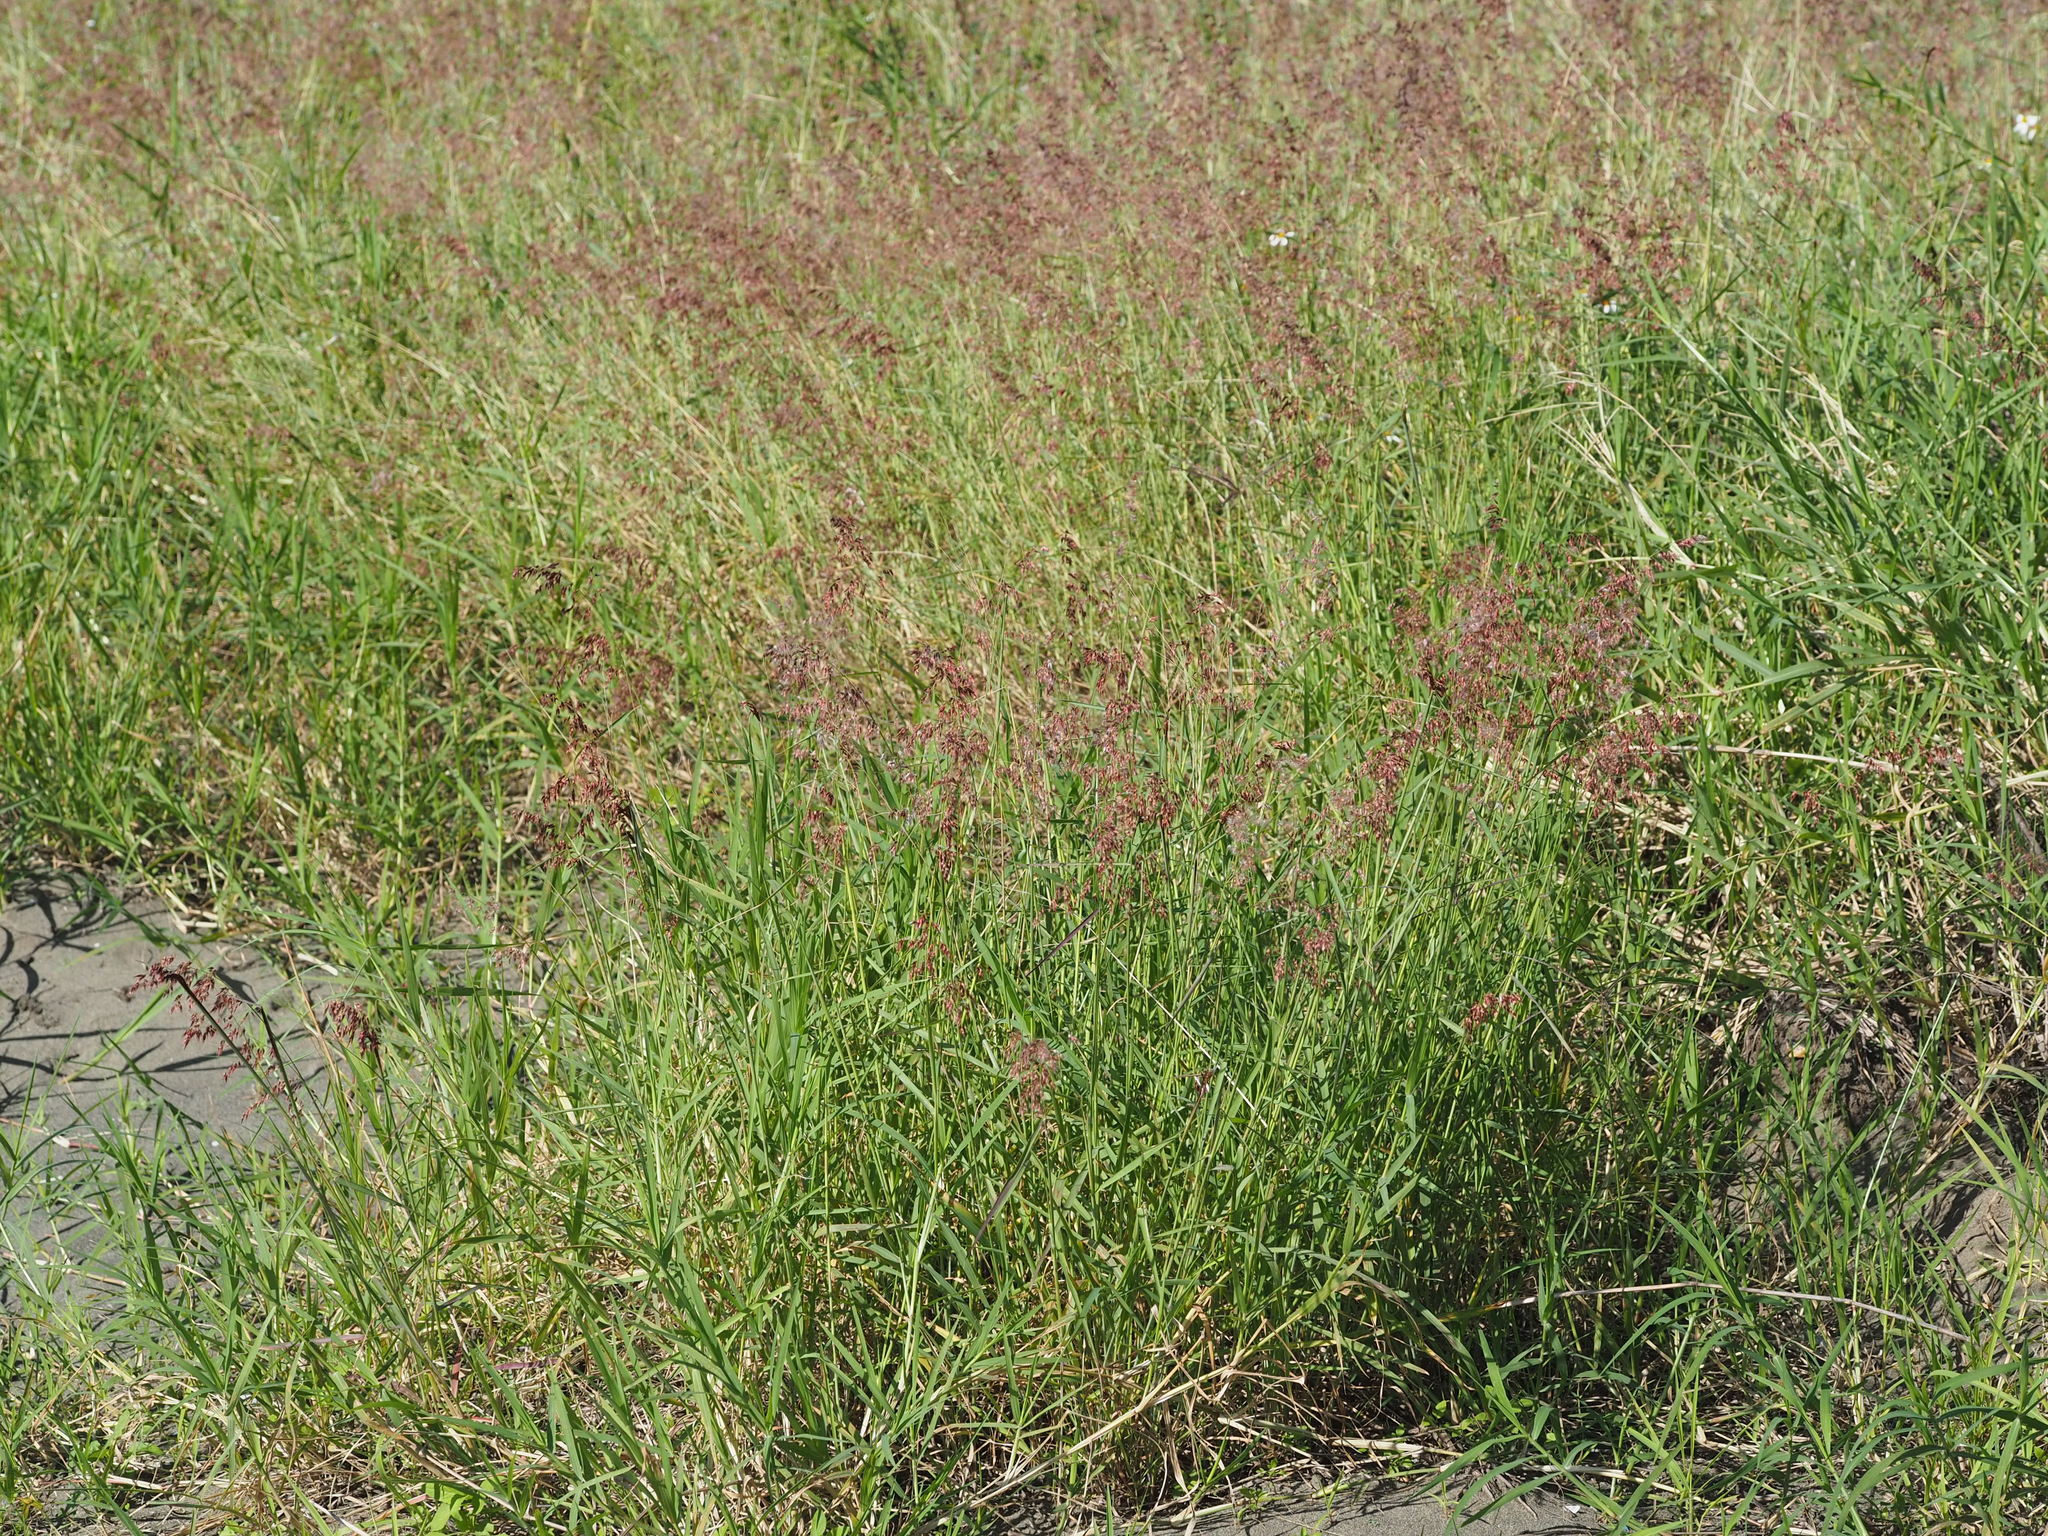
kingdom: Plantae
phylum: Tracheophyta
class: Liliopsida
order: Poales
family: Poaceae
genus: Melinis
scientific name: Melinis repens
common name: Rose natal grass
